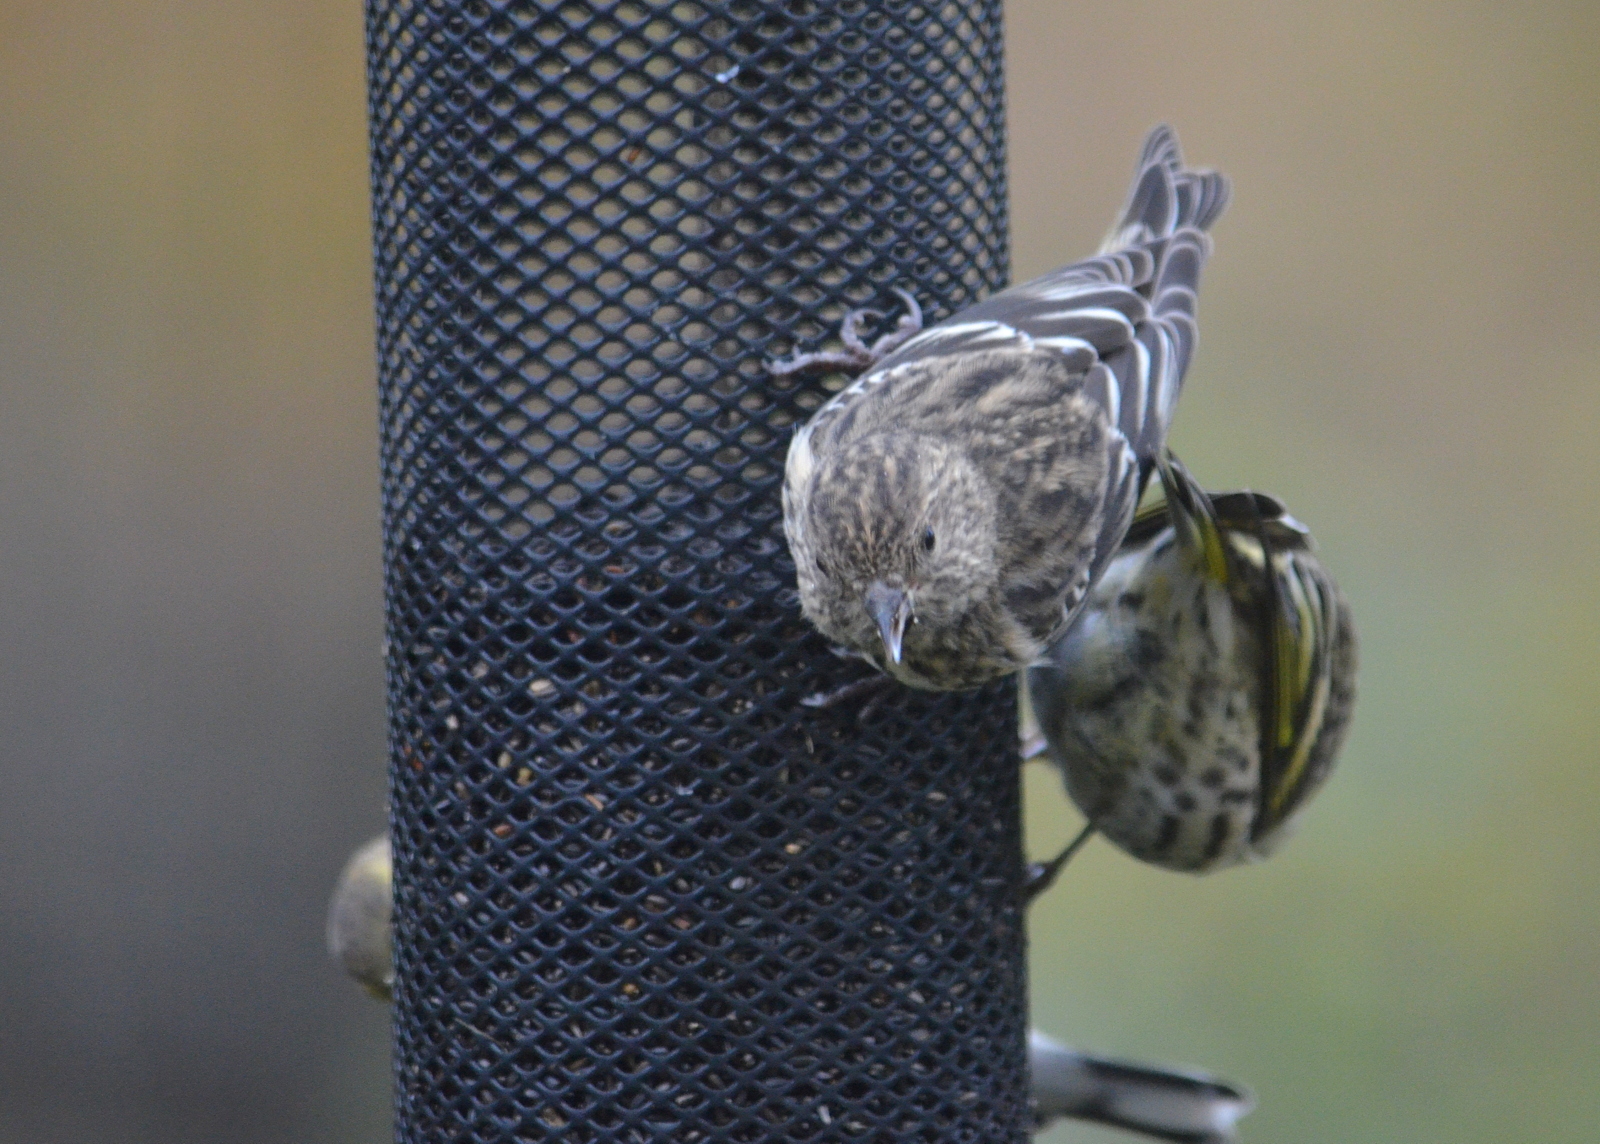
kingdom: Animalia
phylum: Chordata
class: Aves
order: Passeriformes
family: Fringillidae
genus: Spinus
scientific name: Spinus pinus
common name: Pine siskin
